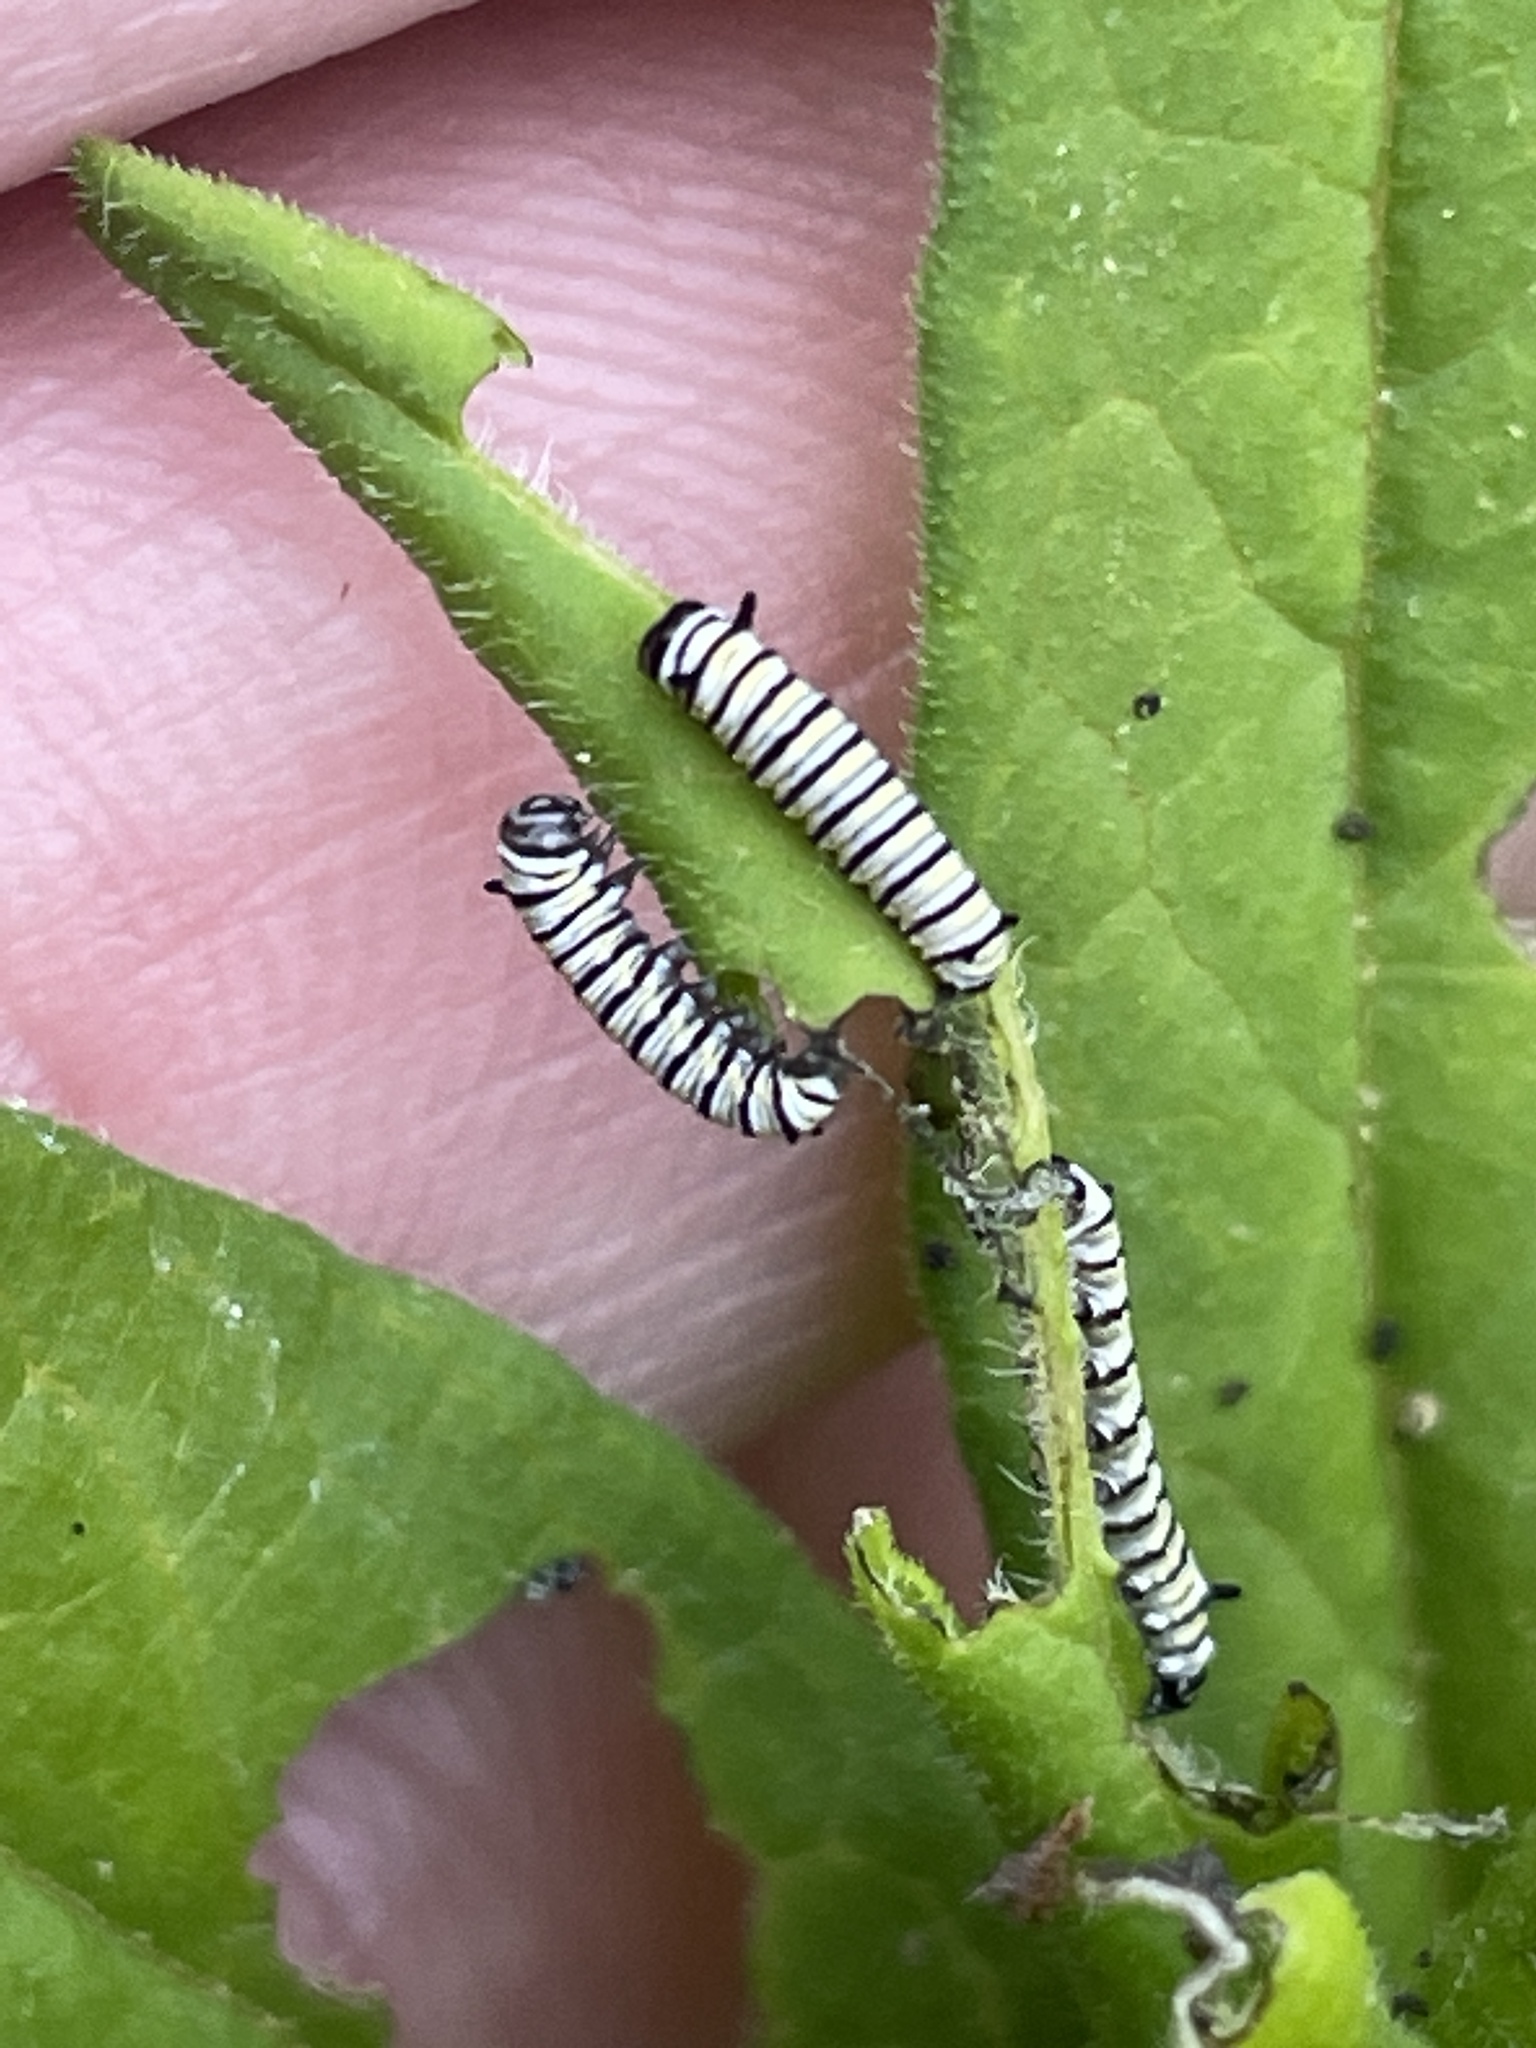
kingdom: Animalia
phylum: Arthropoda
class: Insecta
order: Lepidoptera
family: Nymphalidae
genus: Danaus
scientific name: Danaus plexippus
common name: Monarch
